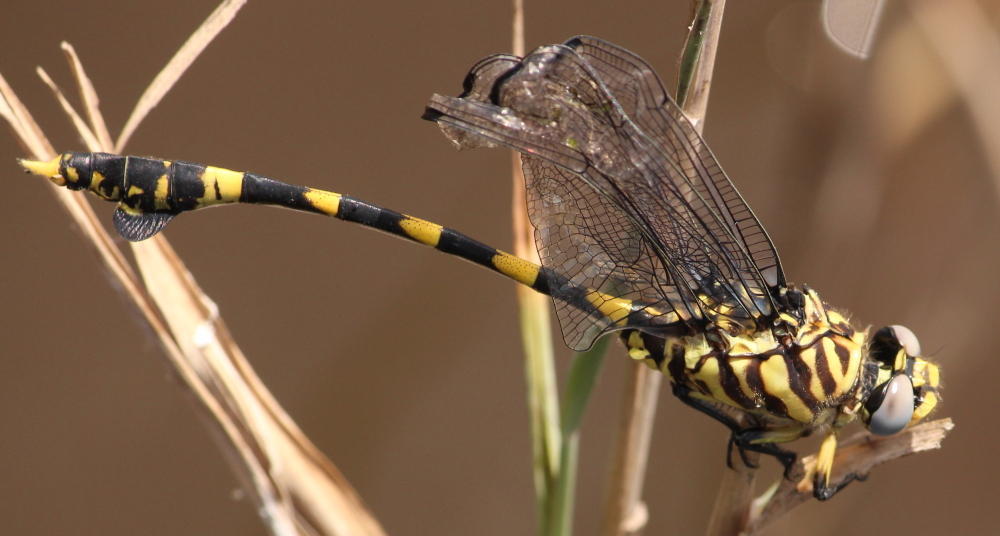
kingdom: Animalia
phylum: Arthropoda
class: Insecta
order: Odonata
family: Gomphidae
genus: Ictinogomphus
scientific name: Ictinogomphus ferox
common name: Common tiger
